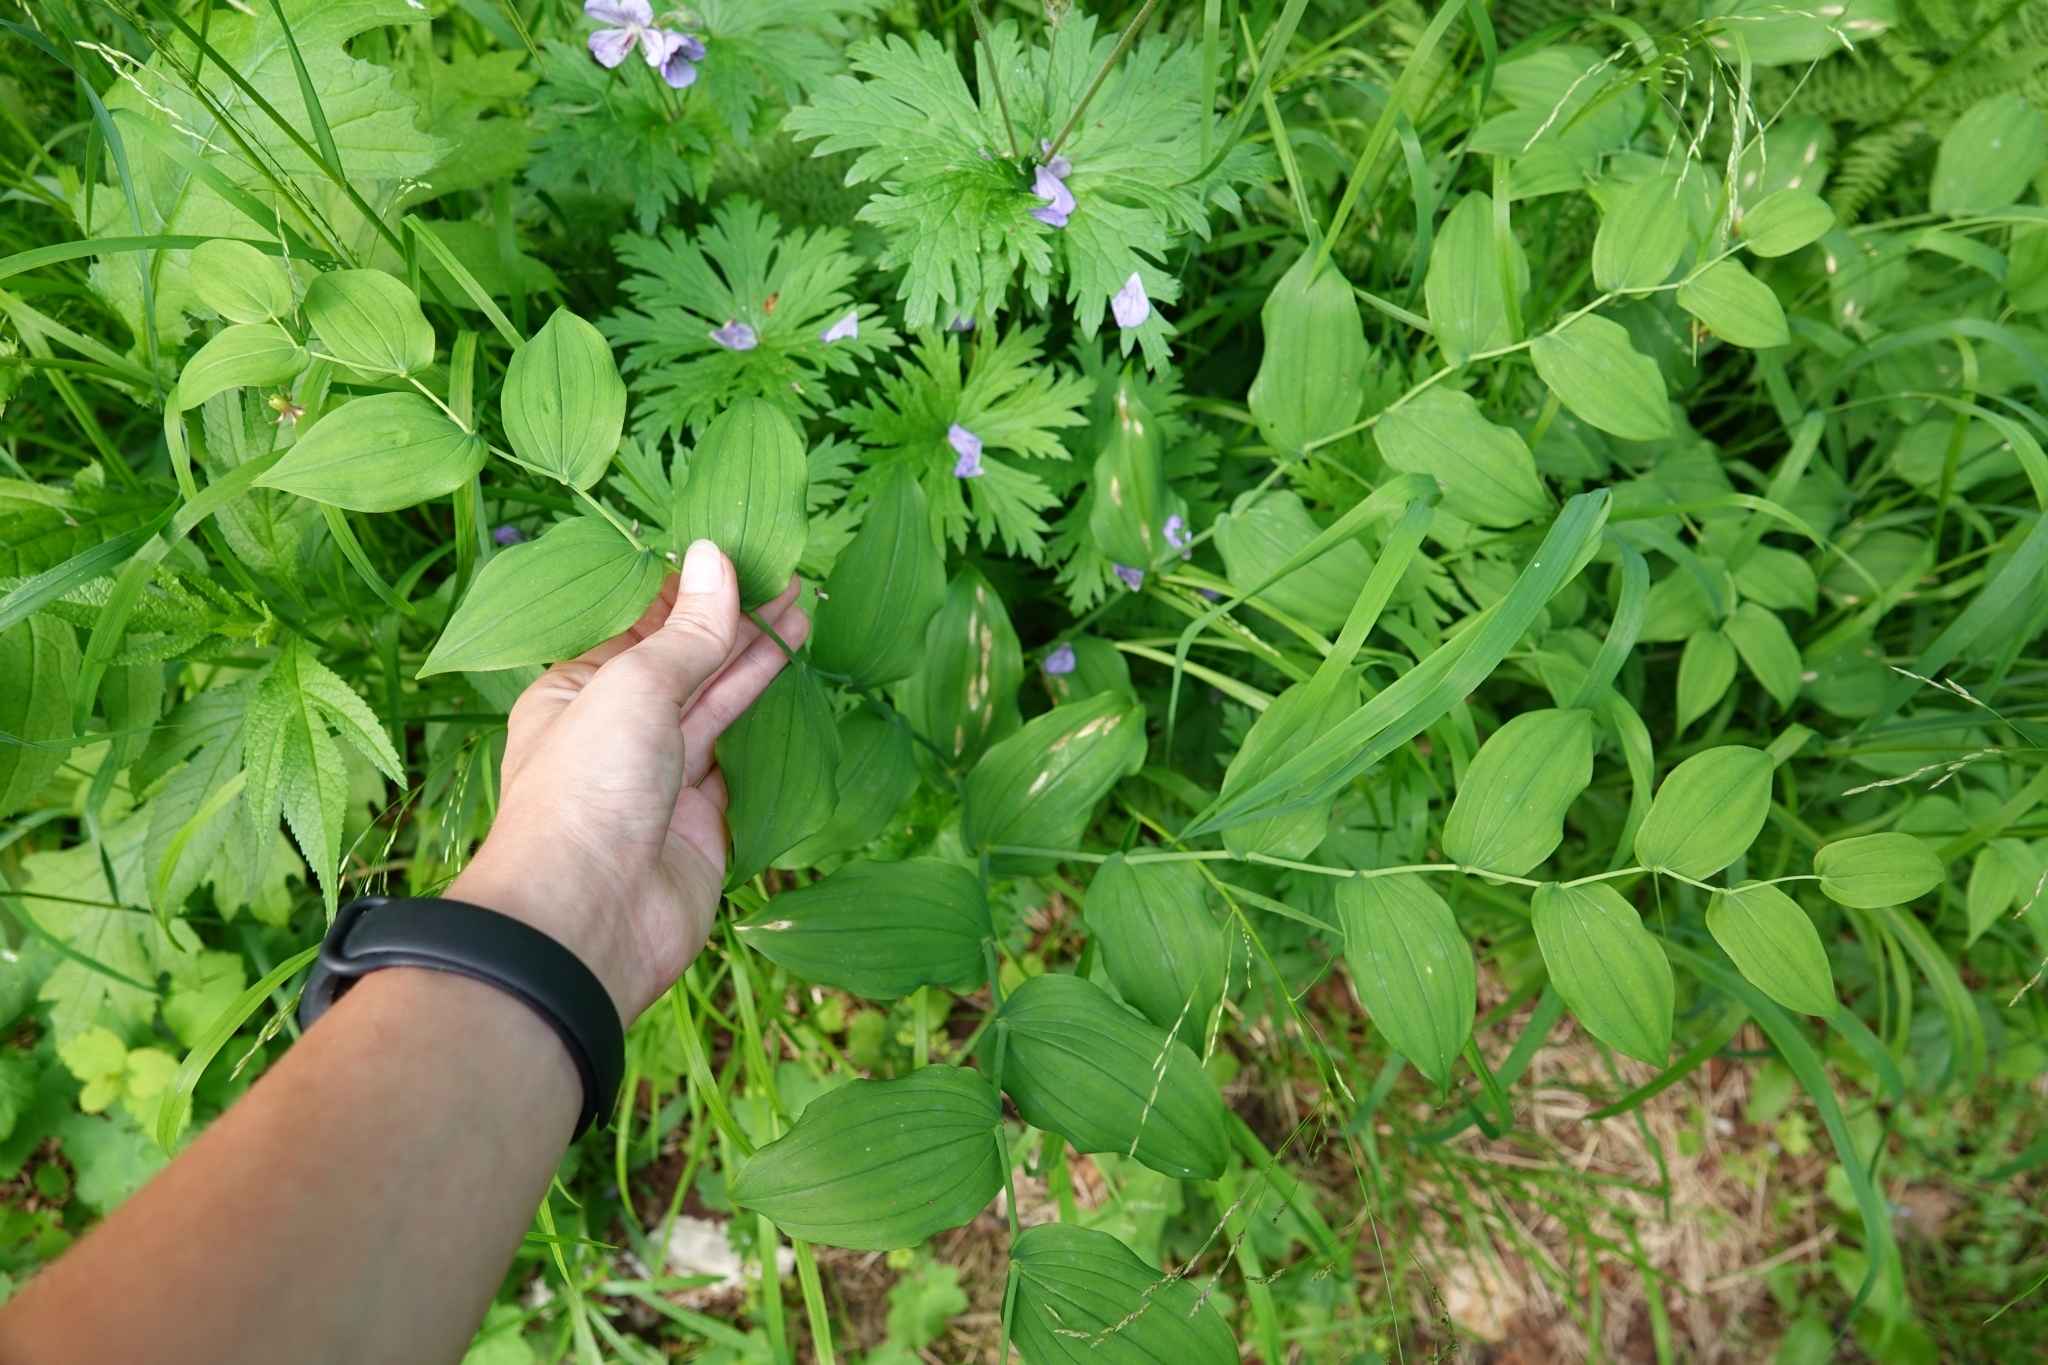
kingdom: Plantae
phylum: Tracheophyta
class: Liliopsida
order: Liliales
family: Liliaceae
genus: Streptopus
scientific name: Streptopus amplexifolius
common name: Clasp twisted stalk
